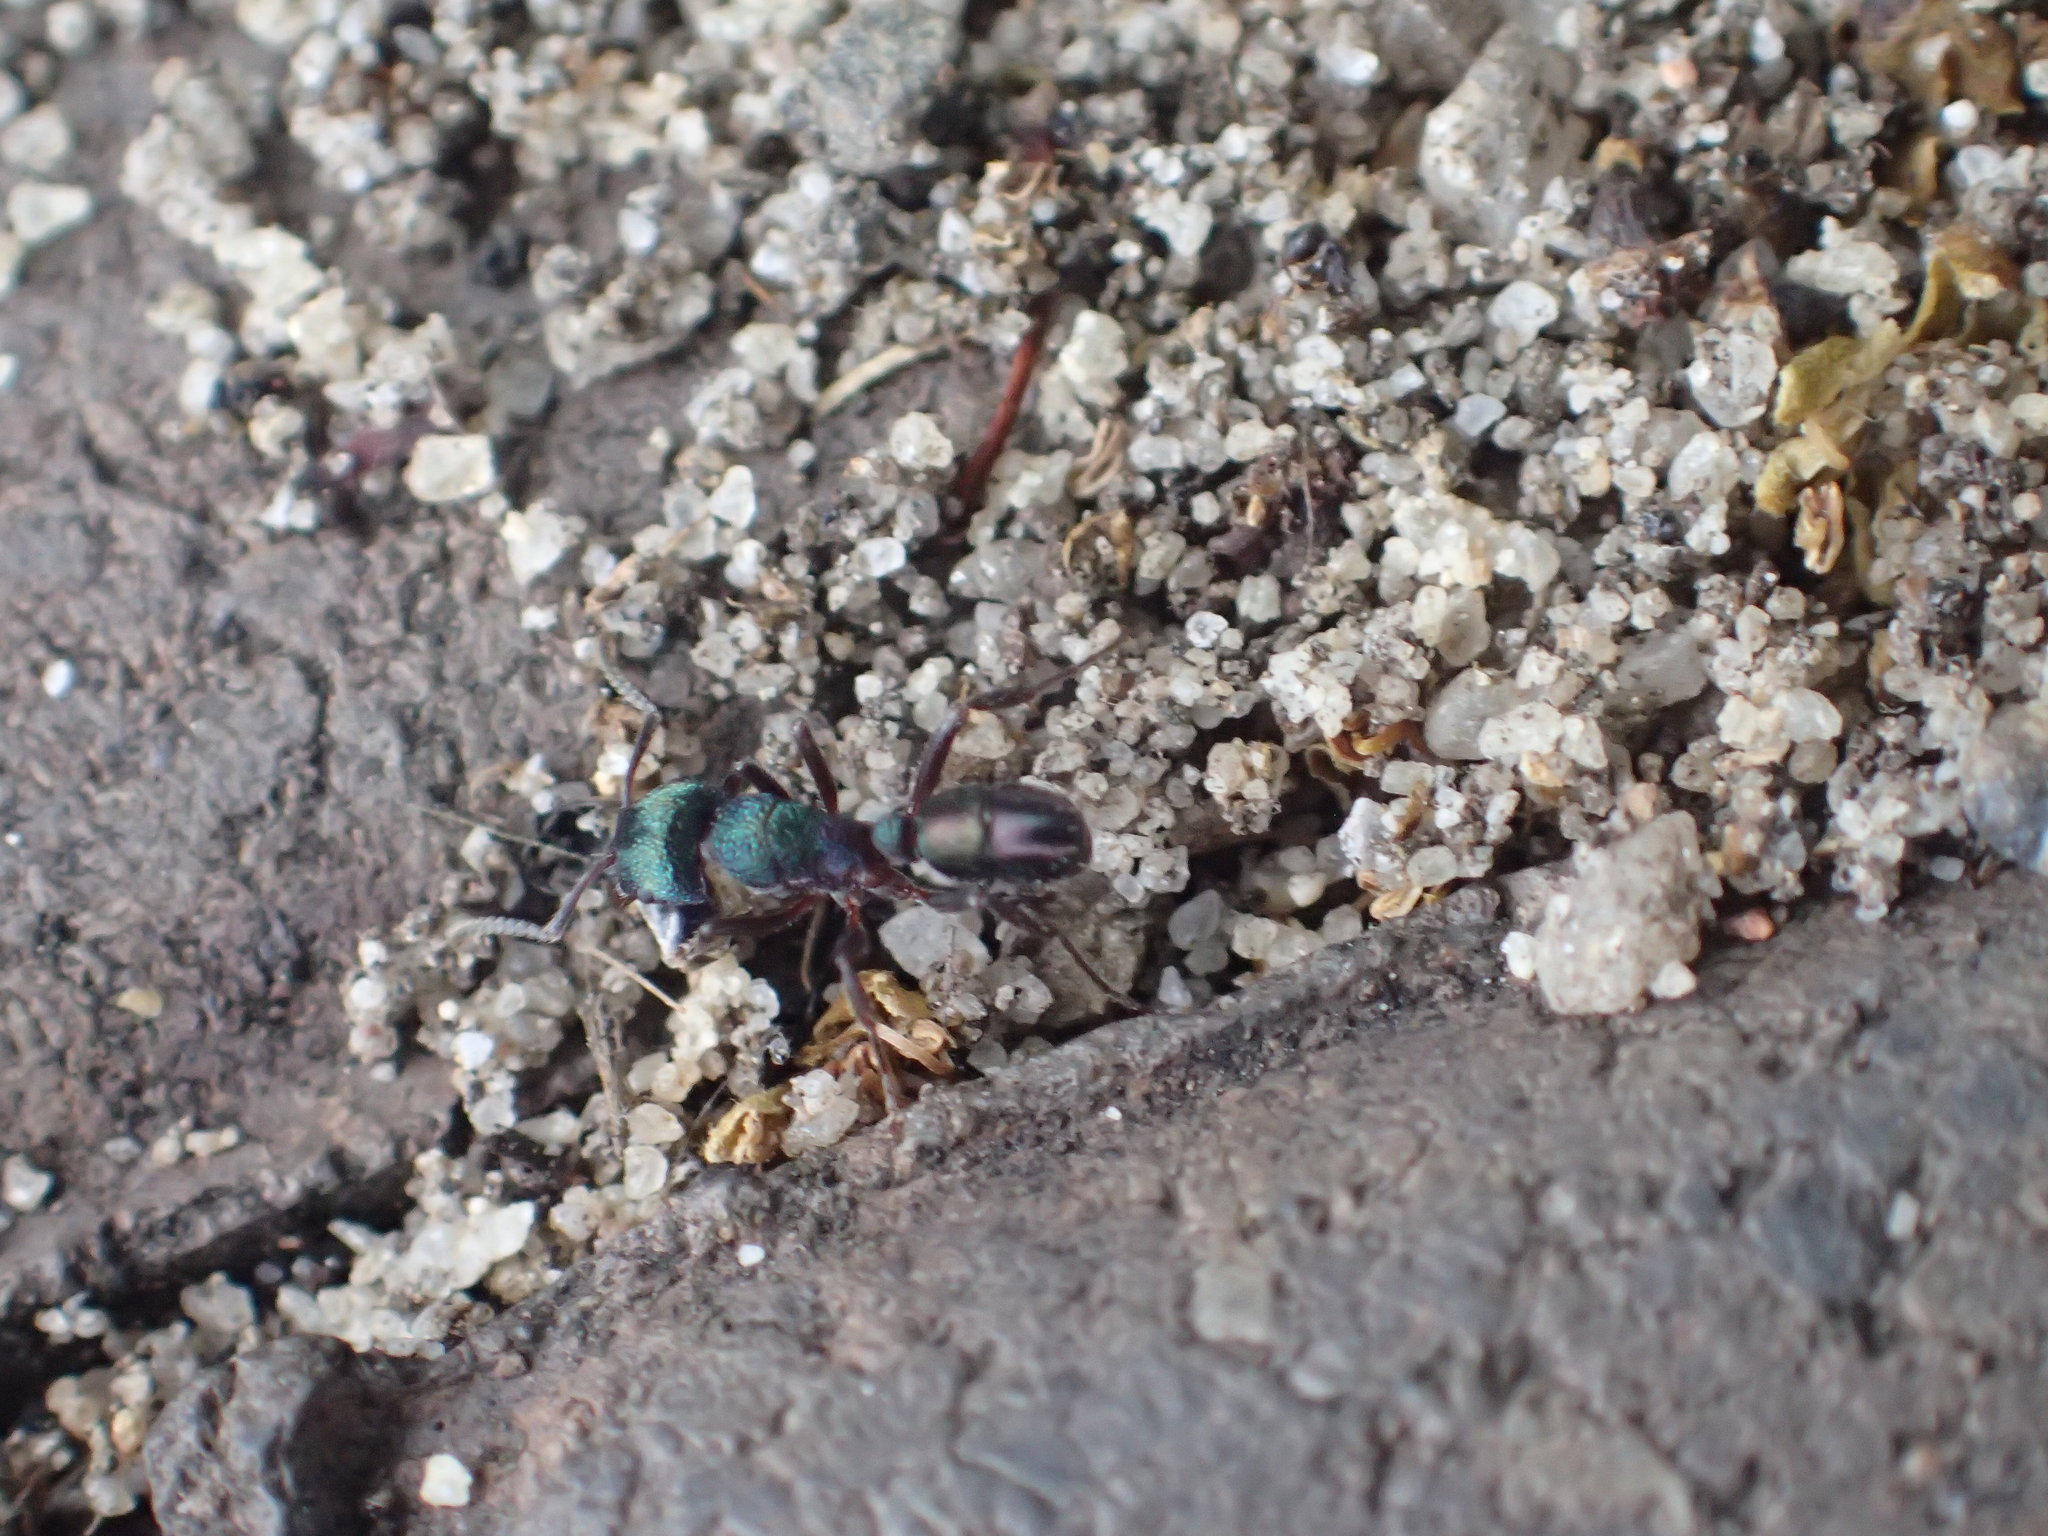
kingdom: Animalia
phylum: Arthropoda
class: Insecta
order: Hymenoptera
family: Formicidae
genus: Rhytidoponera
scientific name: Rhytidoponera metallica
